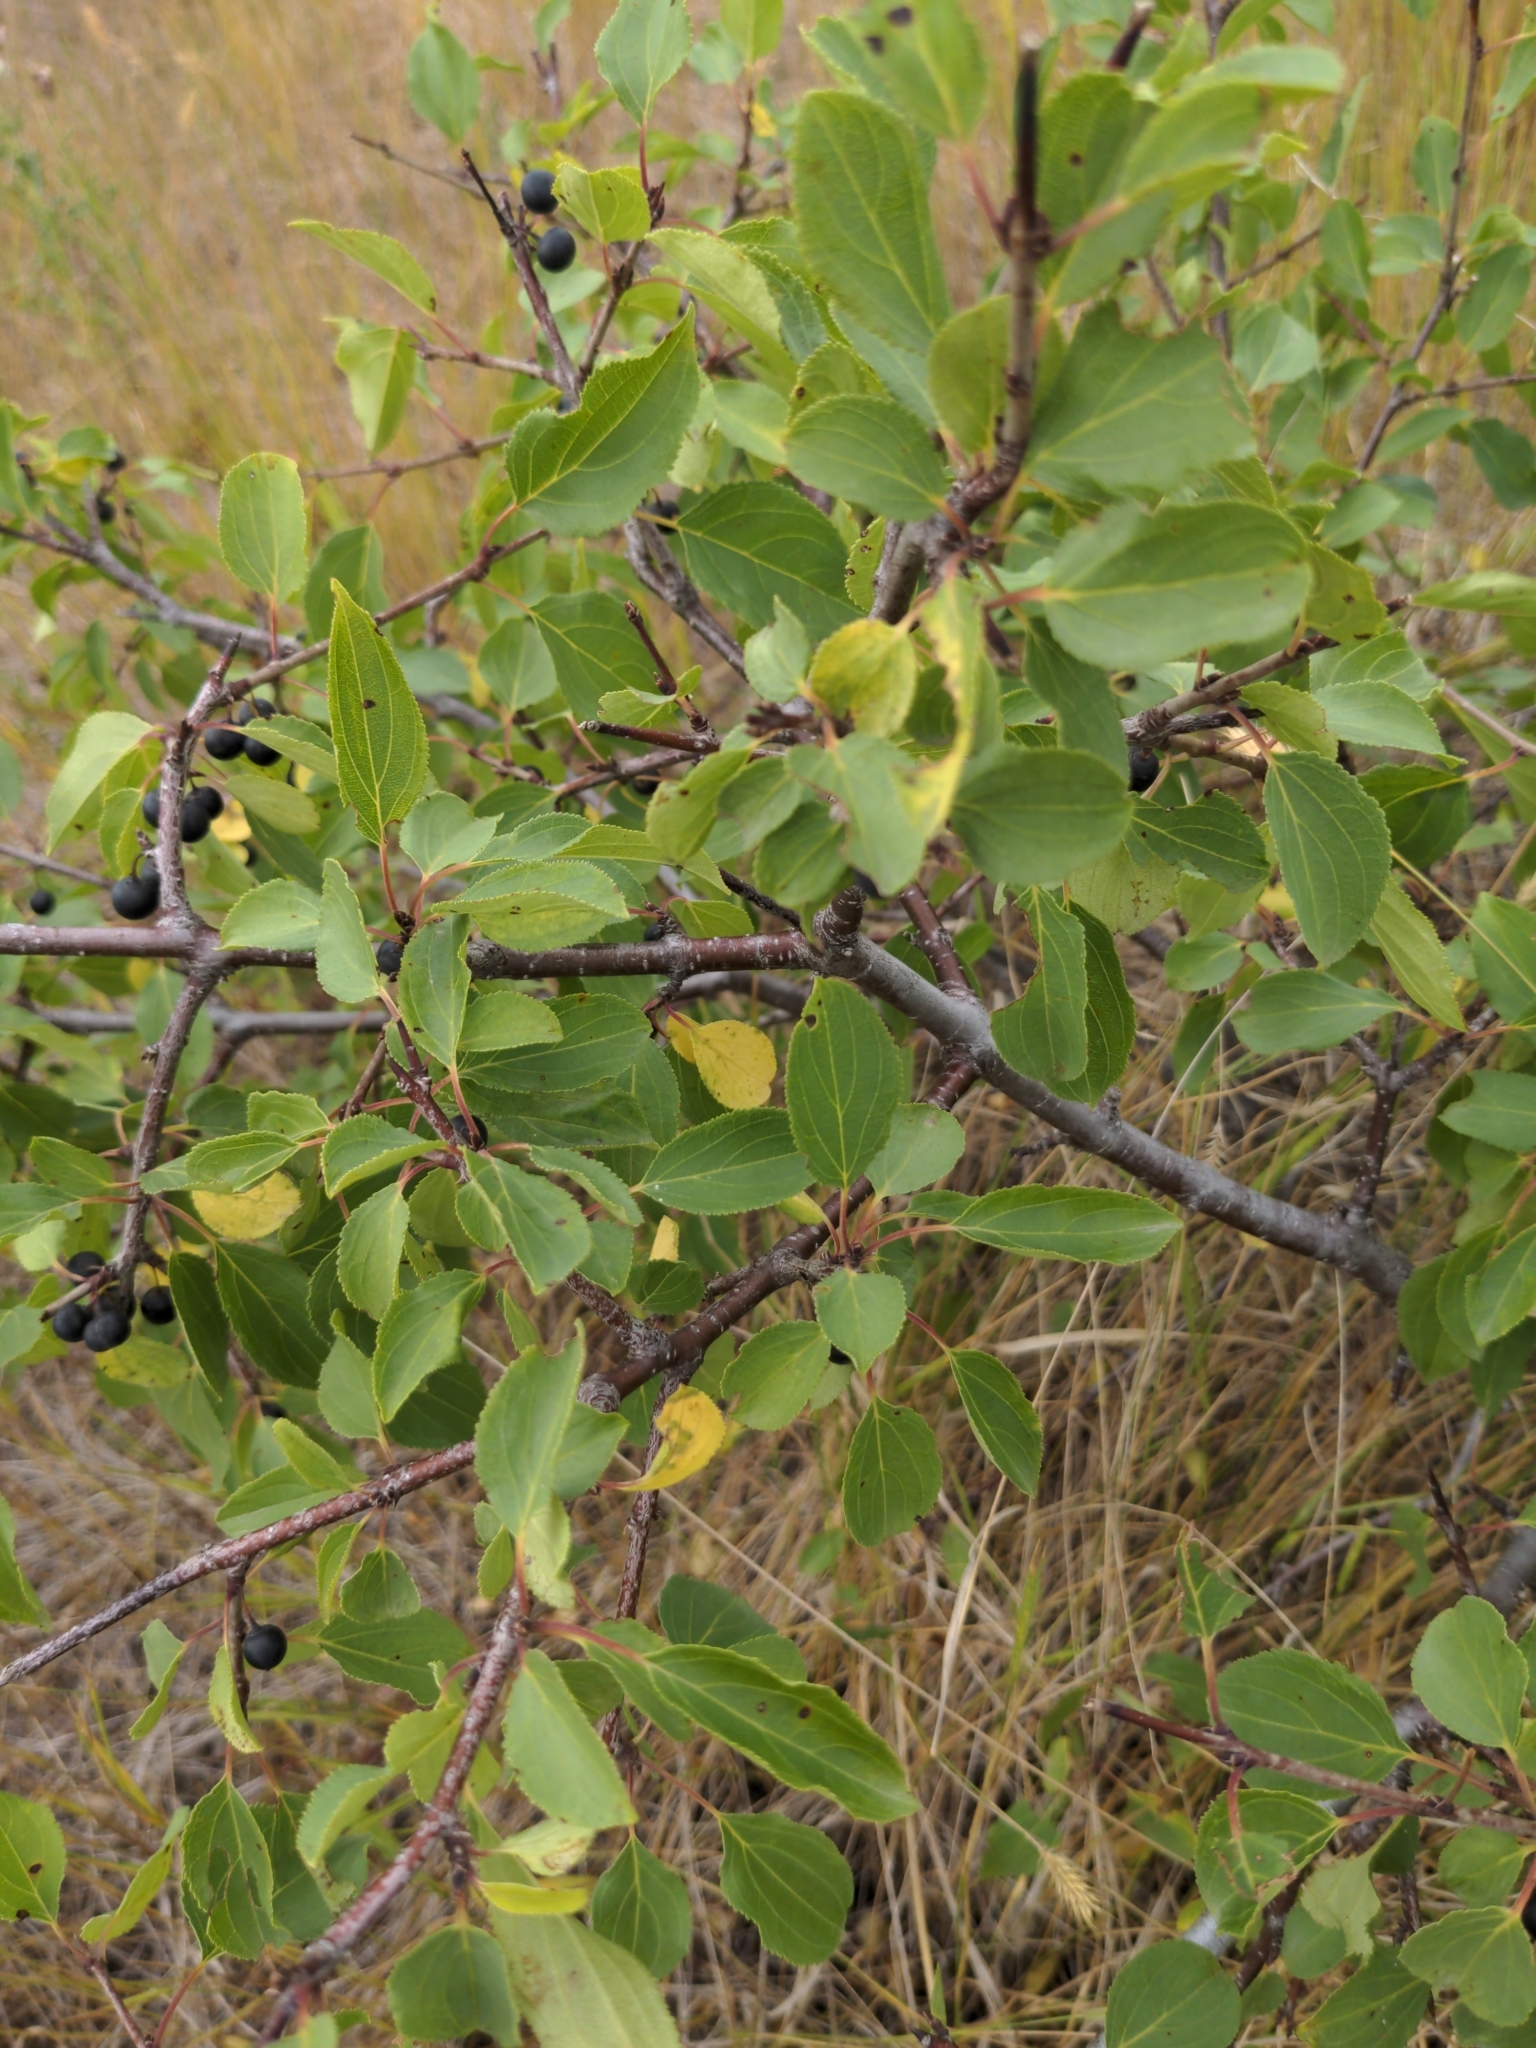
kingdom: Plantae
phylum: Tracheophyta
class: Magnoliopsida
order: Rosales
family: Rhamnaceae
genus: Rhamnus
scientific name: Rhamnus cathartica
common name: Common buckthorn
